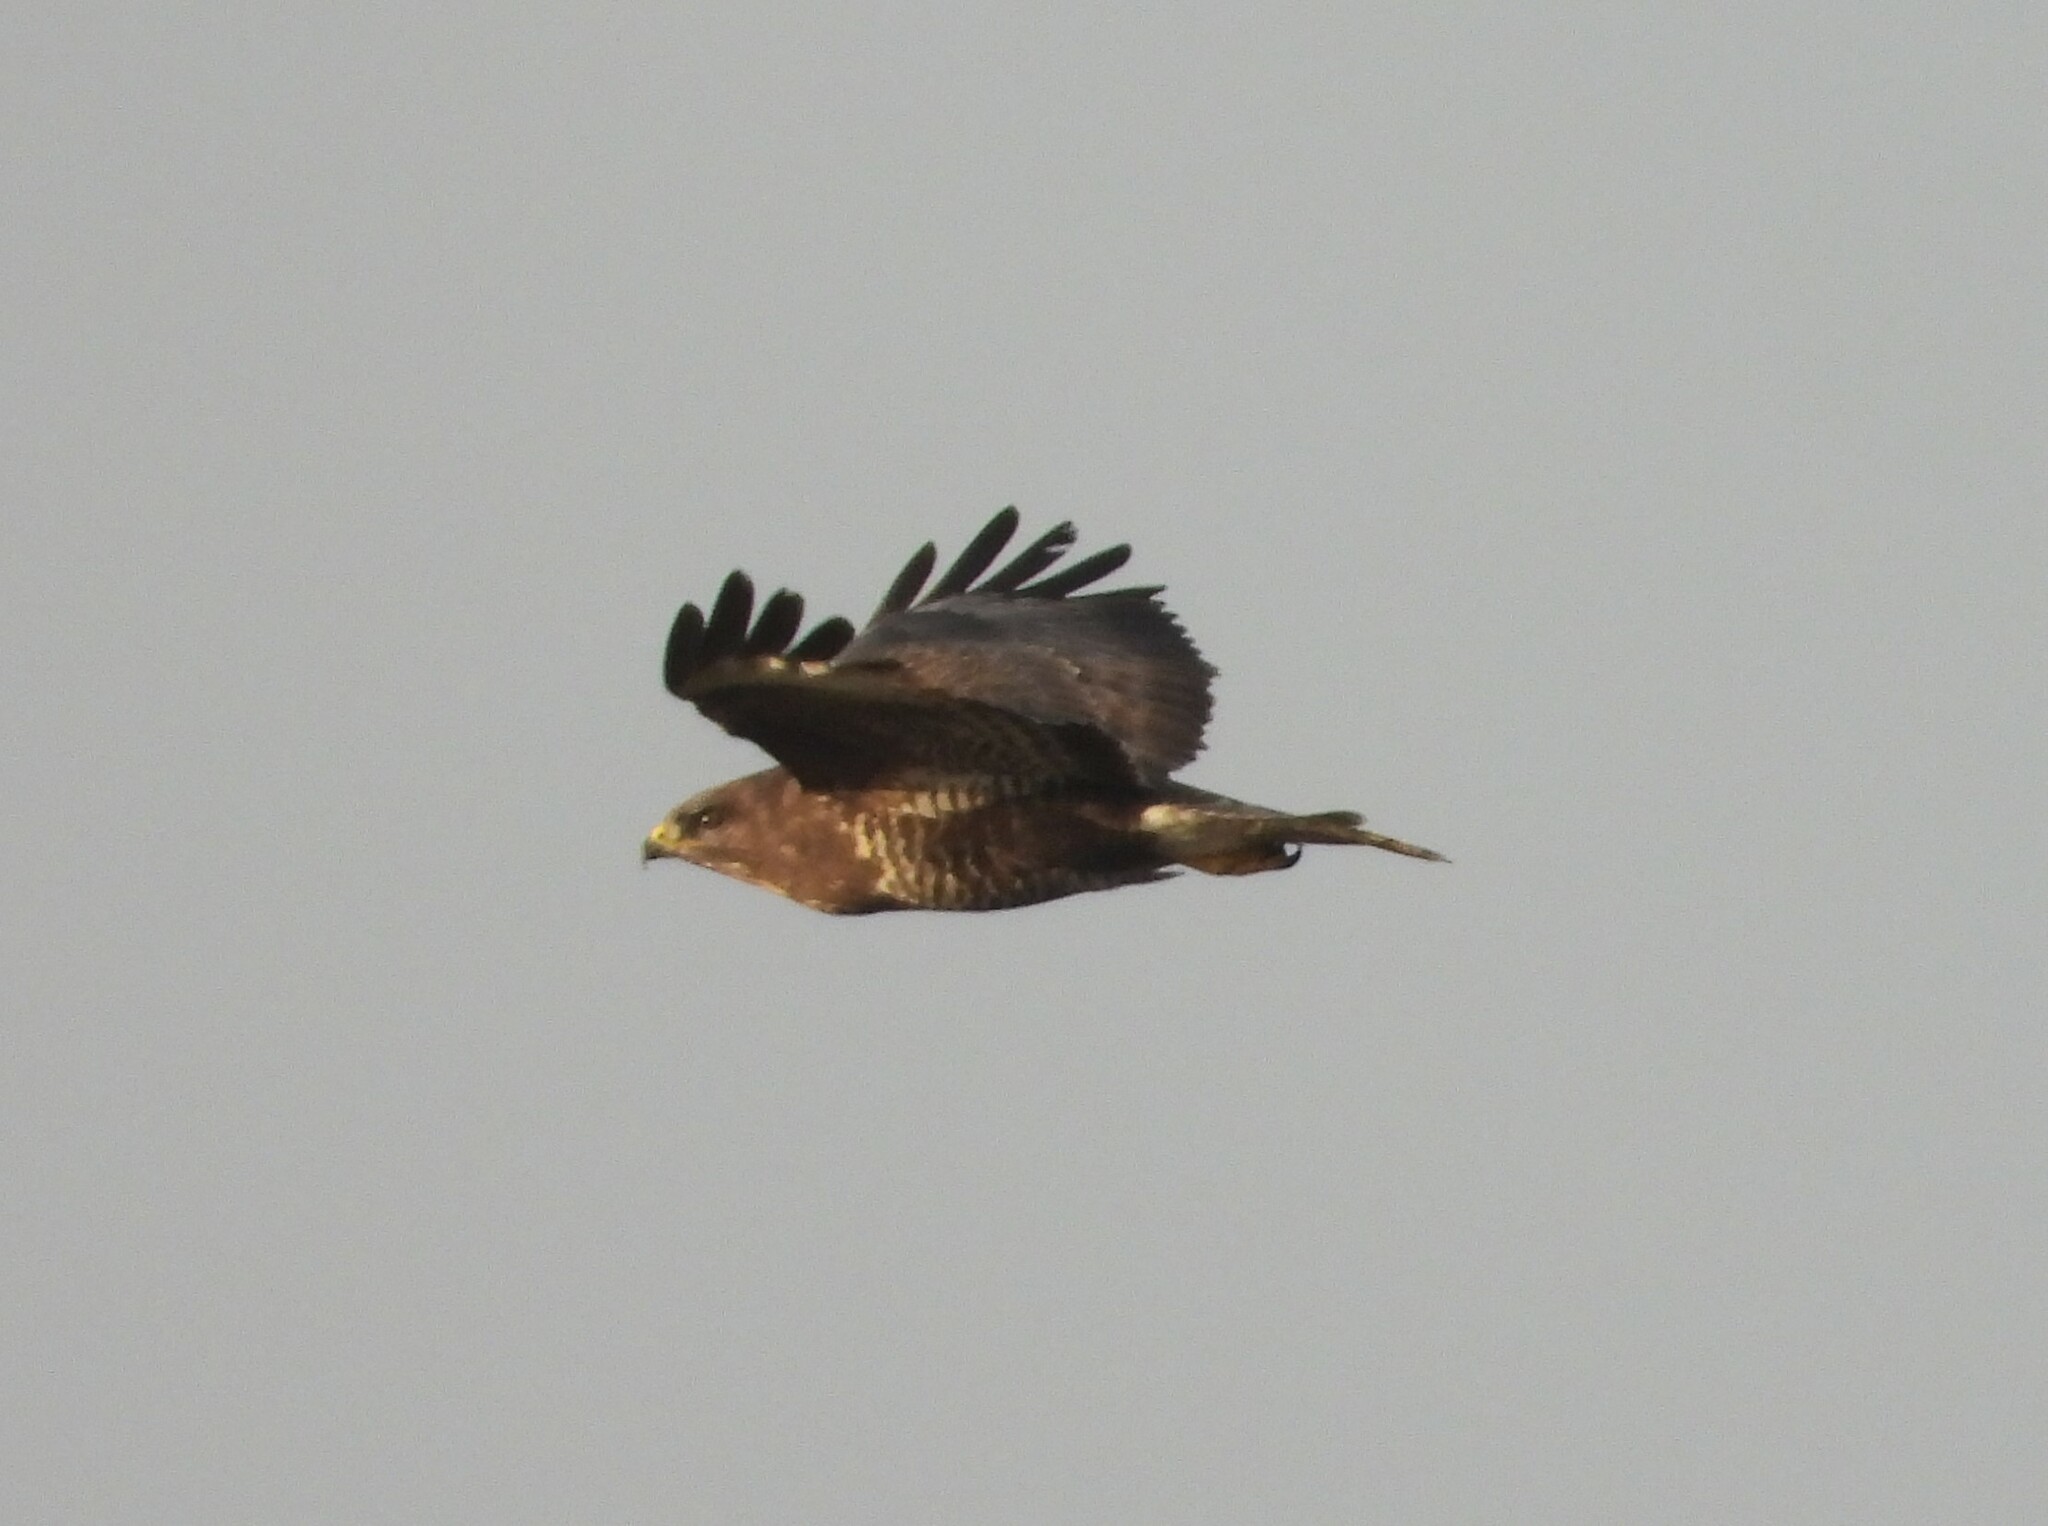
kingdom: Animalia
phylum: Chordata
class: Aves
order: Accipitriformes
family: Accipitridae
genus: Buteo
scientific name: Buteo buteo
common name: Common buzzard
